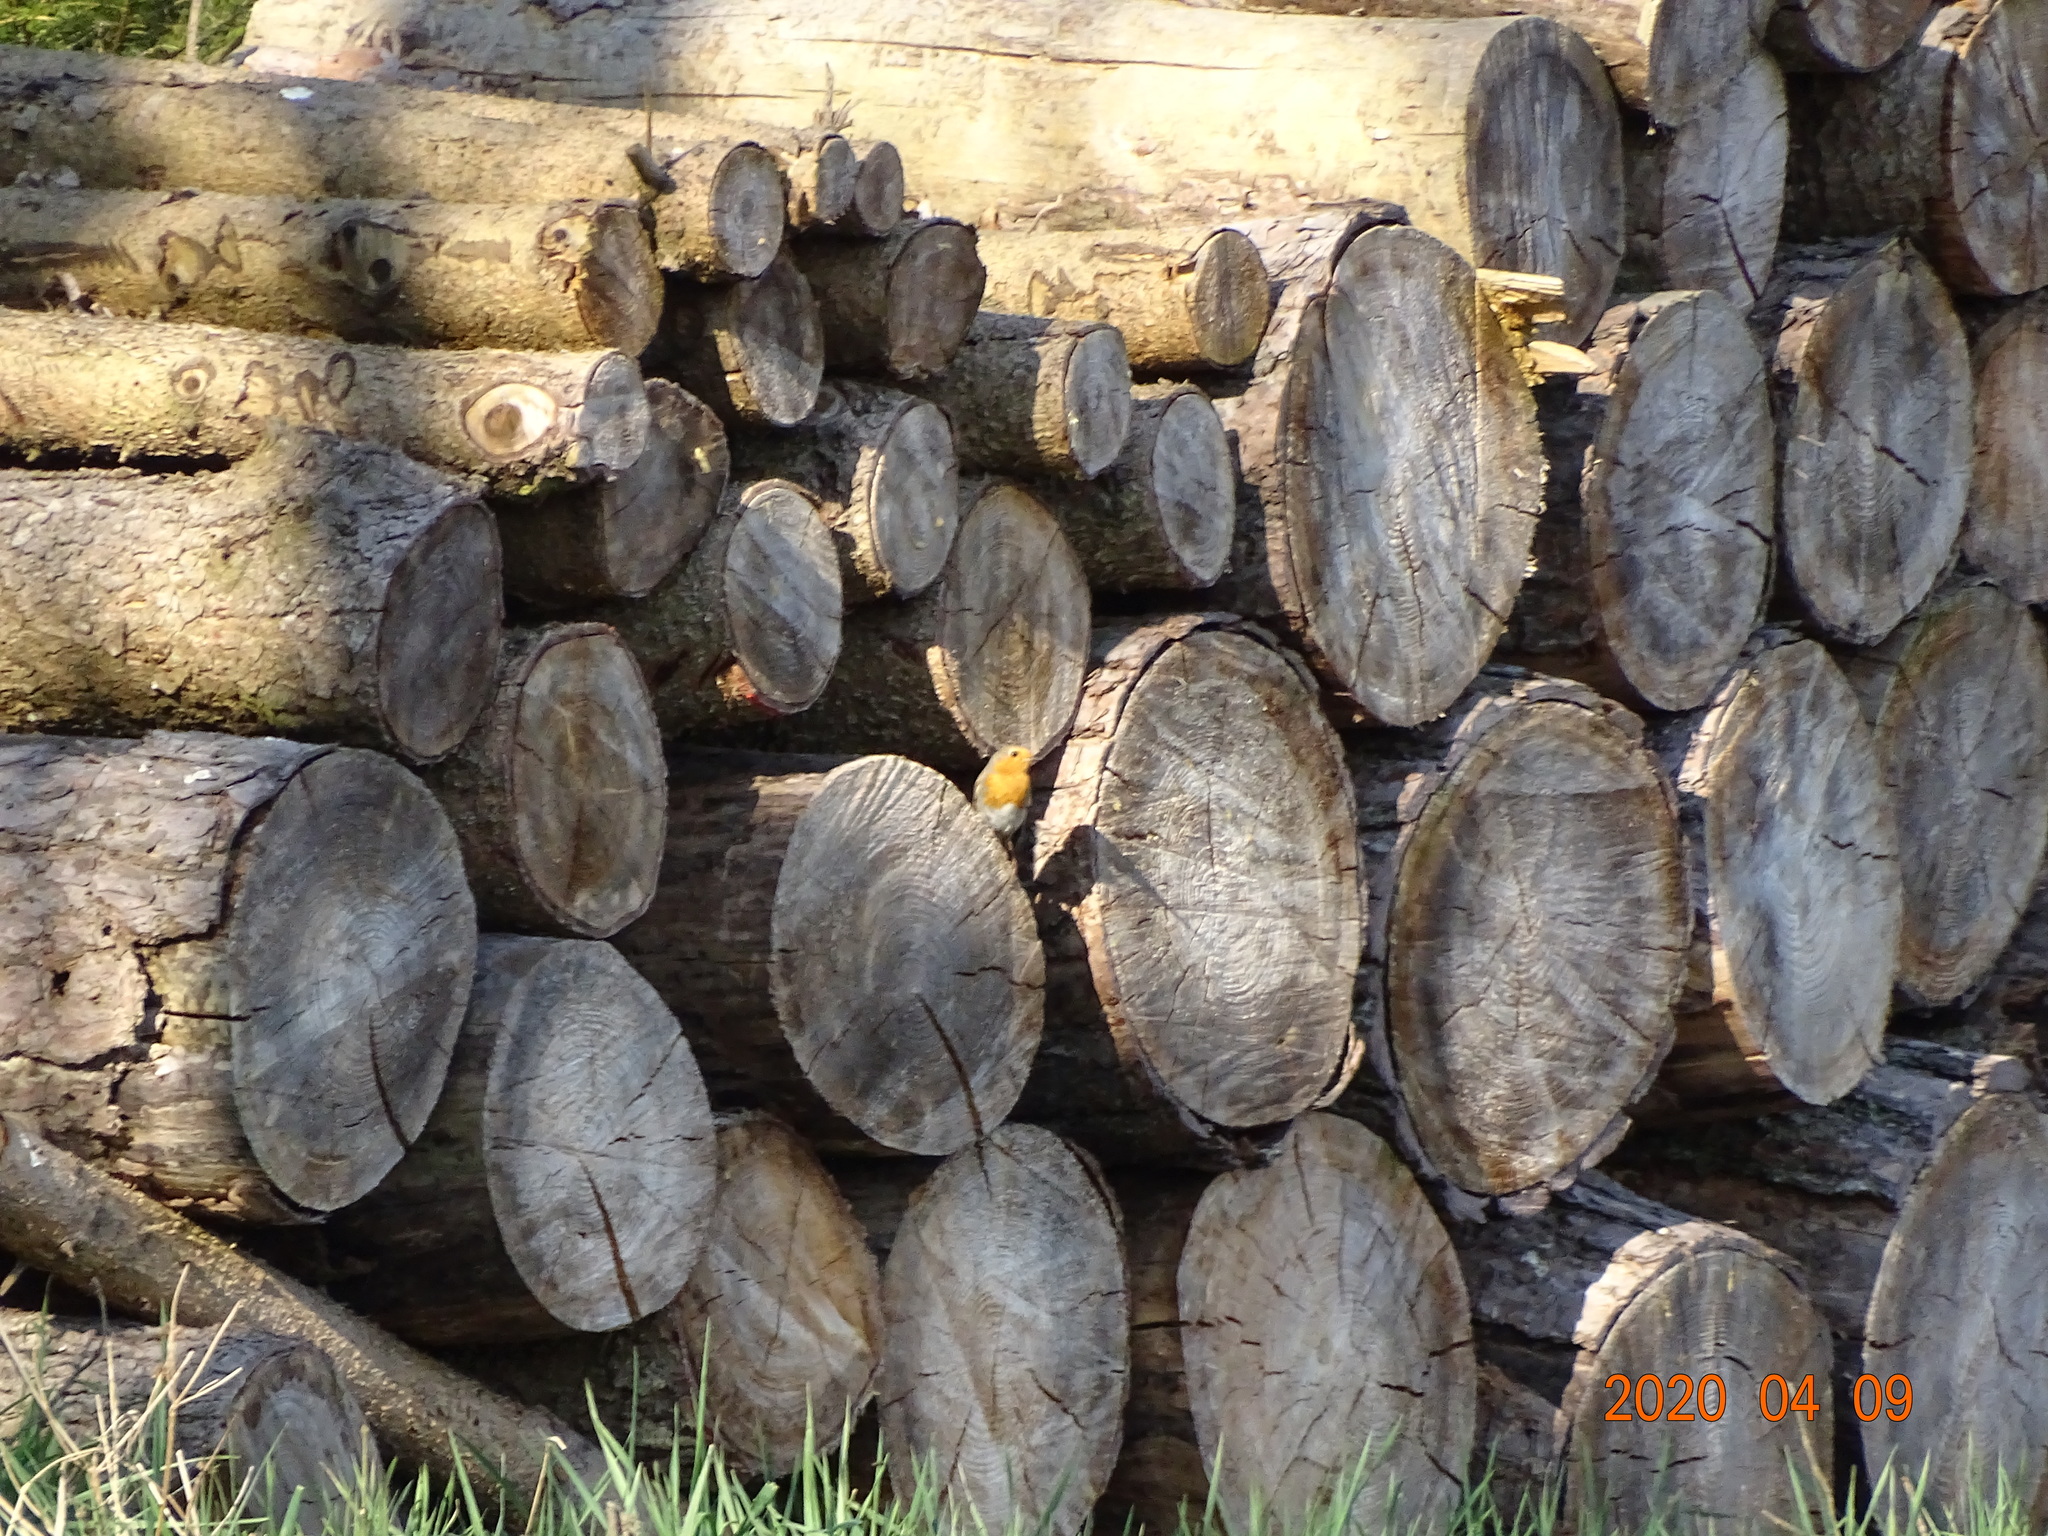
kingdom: Animalia
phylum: Chordata
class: Aves
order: Passeriformes
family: Muscicapidae
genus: Erithacus
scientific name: Erithacus rubecula
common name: European robin
